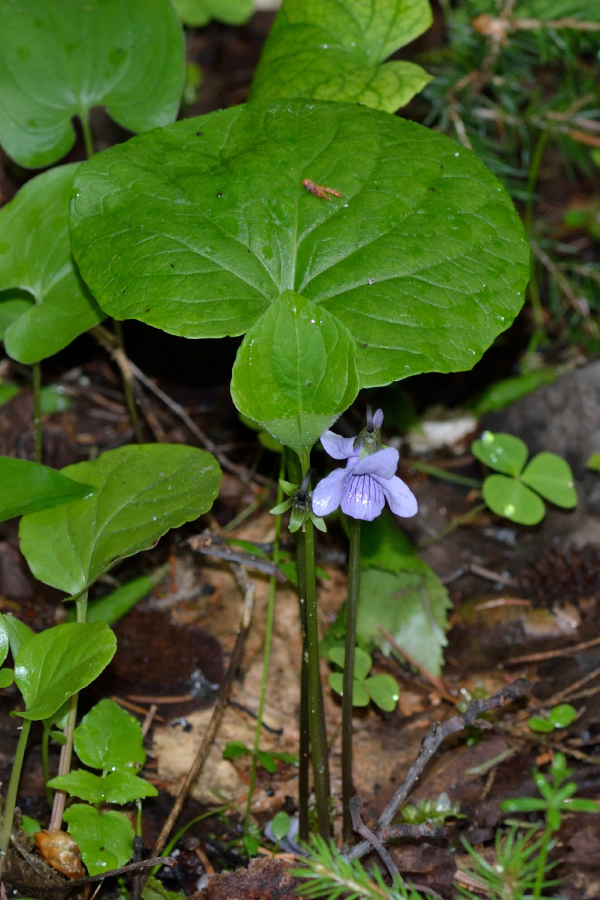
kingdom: Plantae
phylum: Tracheophyta
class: Magnoliopsida
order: Malpighiales
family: Violaceae
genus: Viola
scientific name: Viola epipsila
